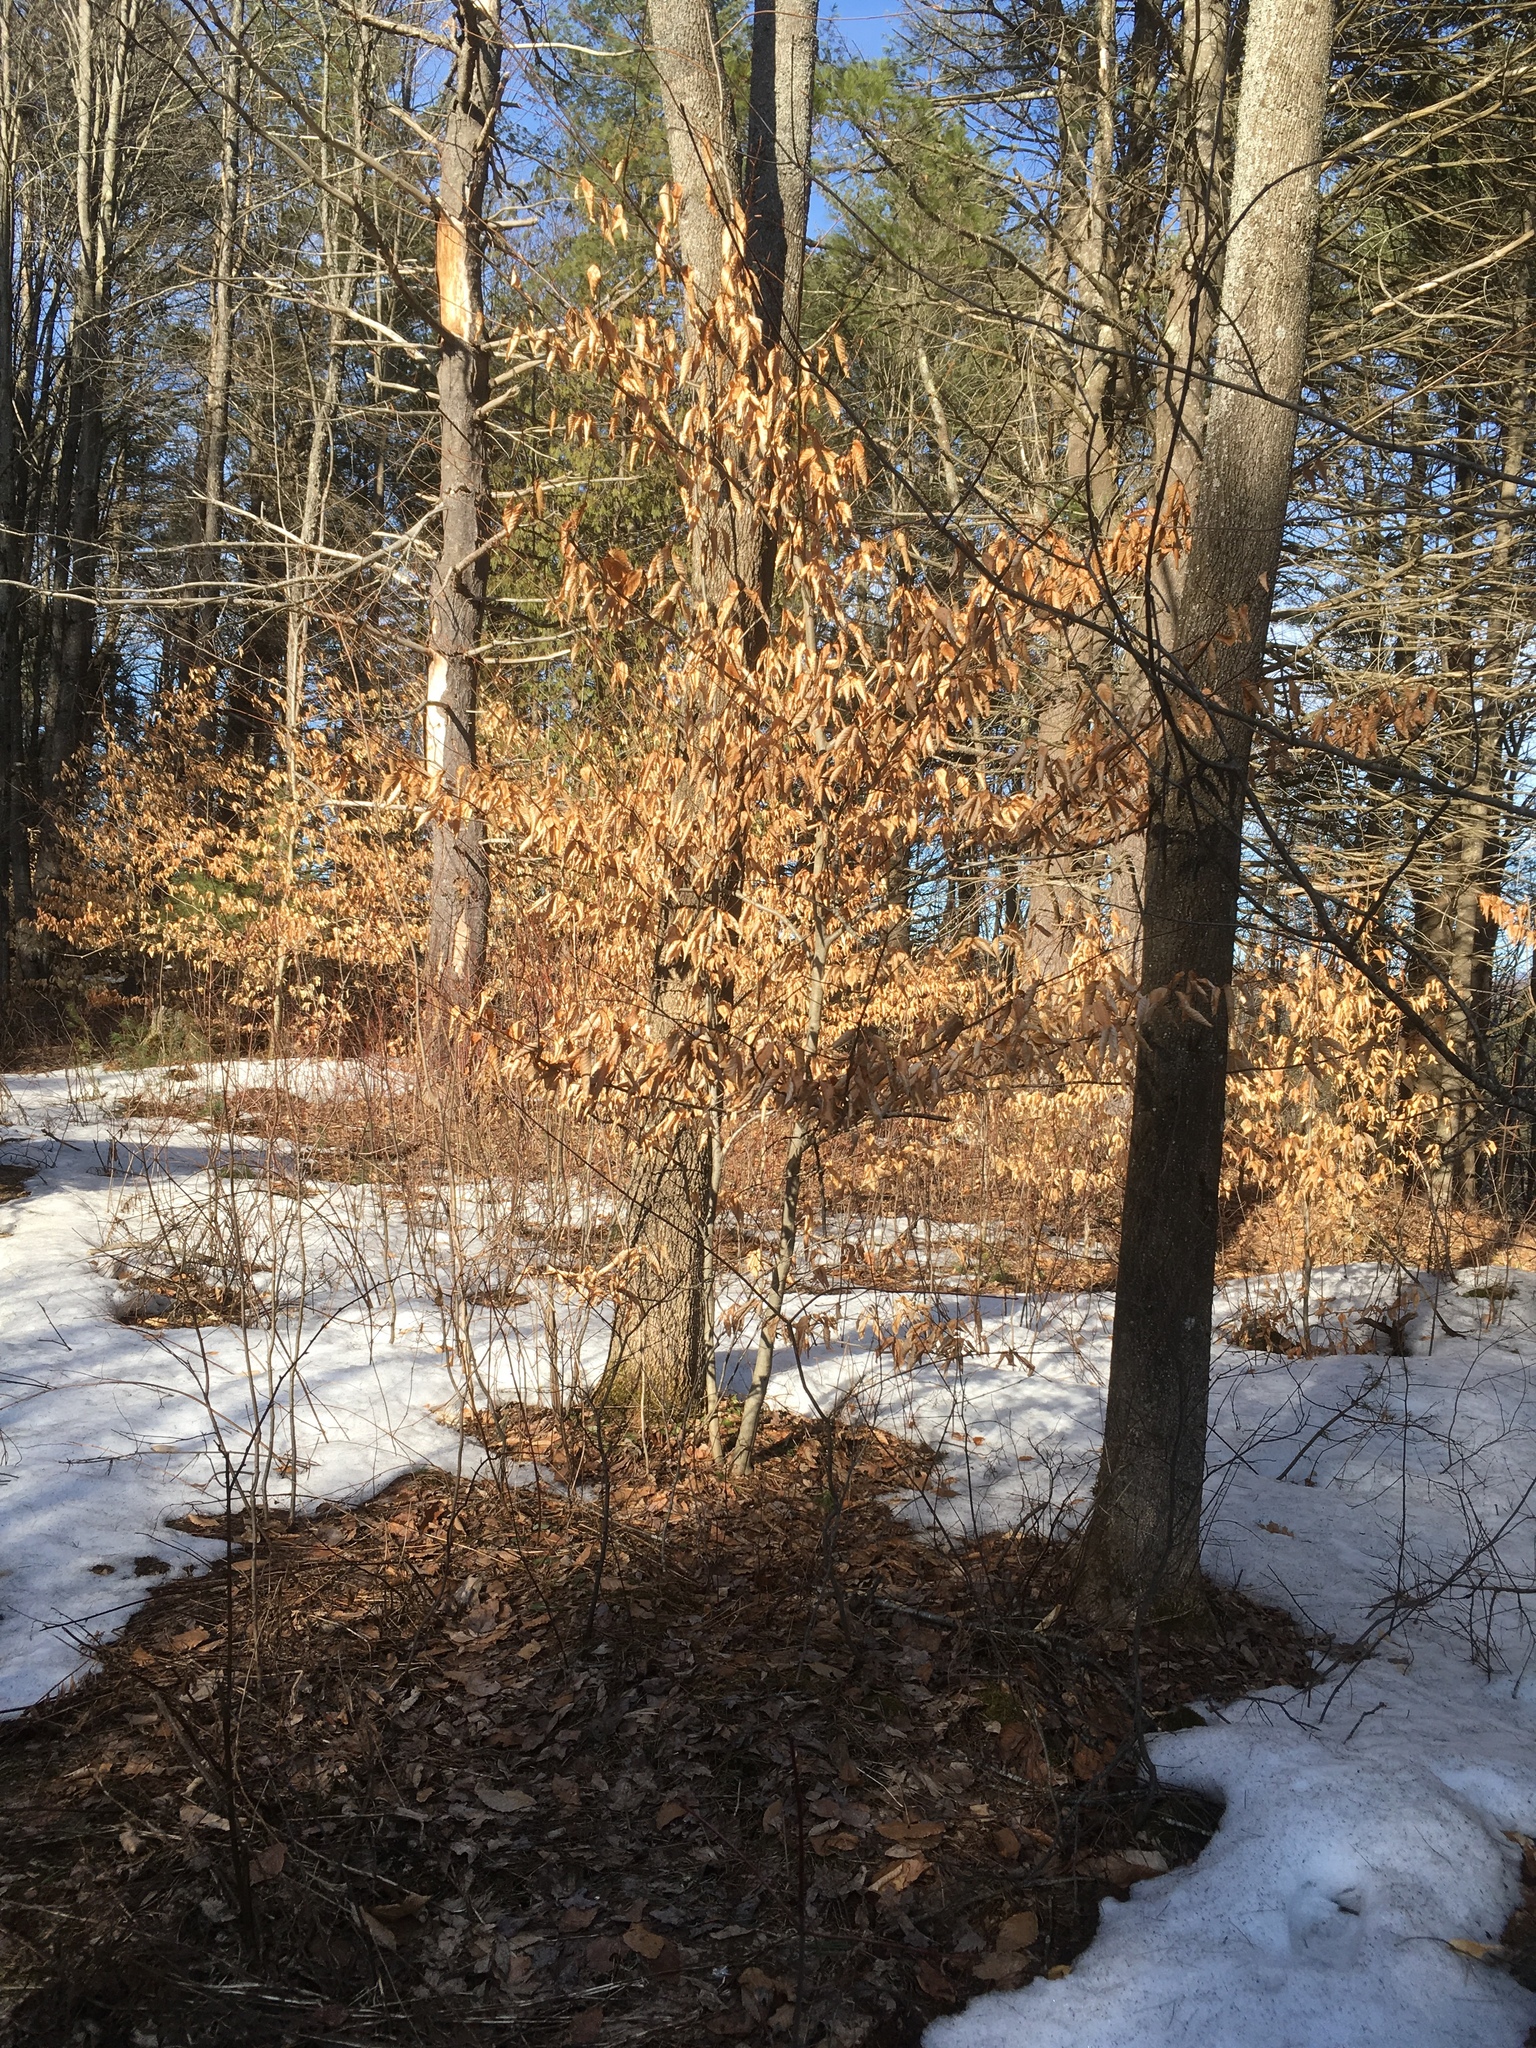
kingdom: Plantae
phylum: Tracheophyta
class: Magnoliopsida
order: Fagales
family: Fagaceae
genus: Fagus
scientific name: Fagus grandifolia
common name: American beech
